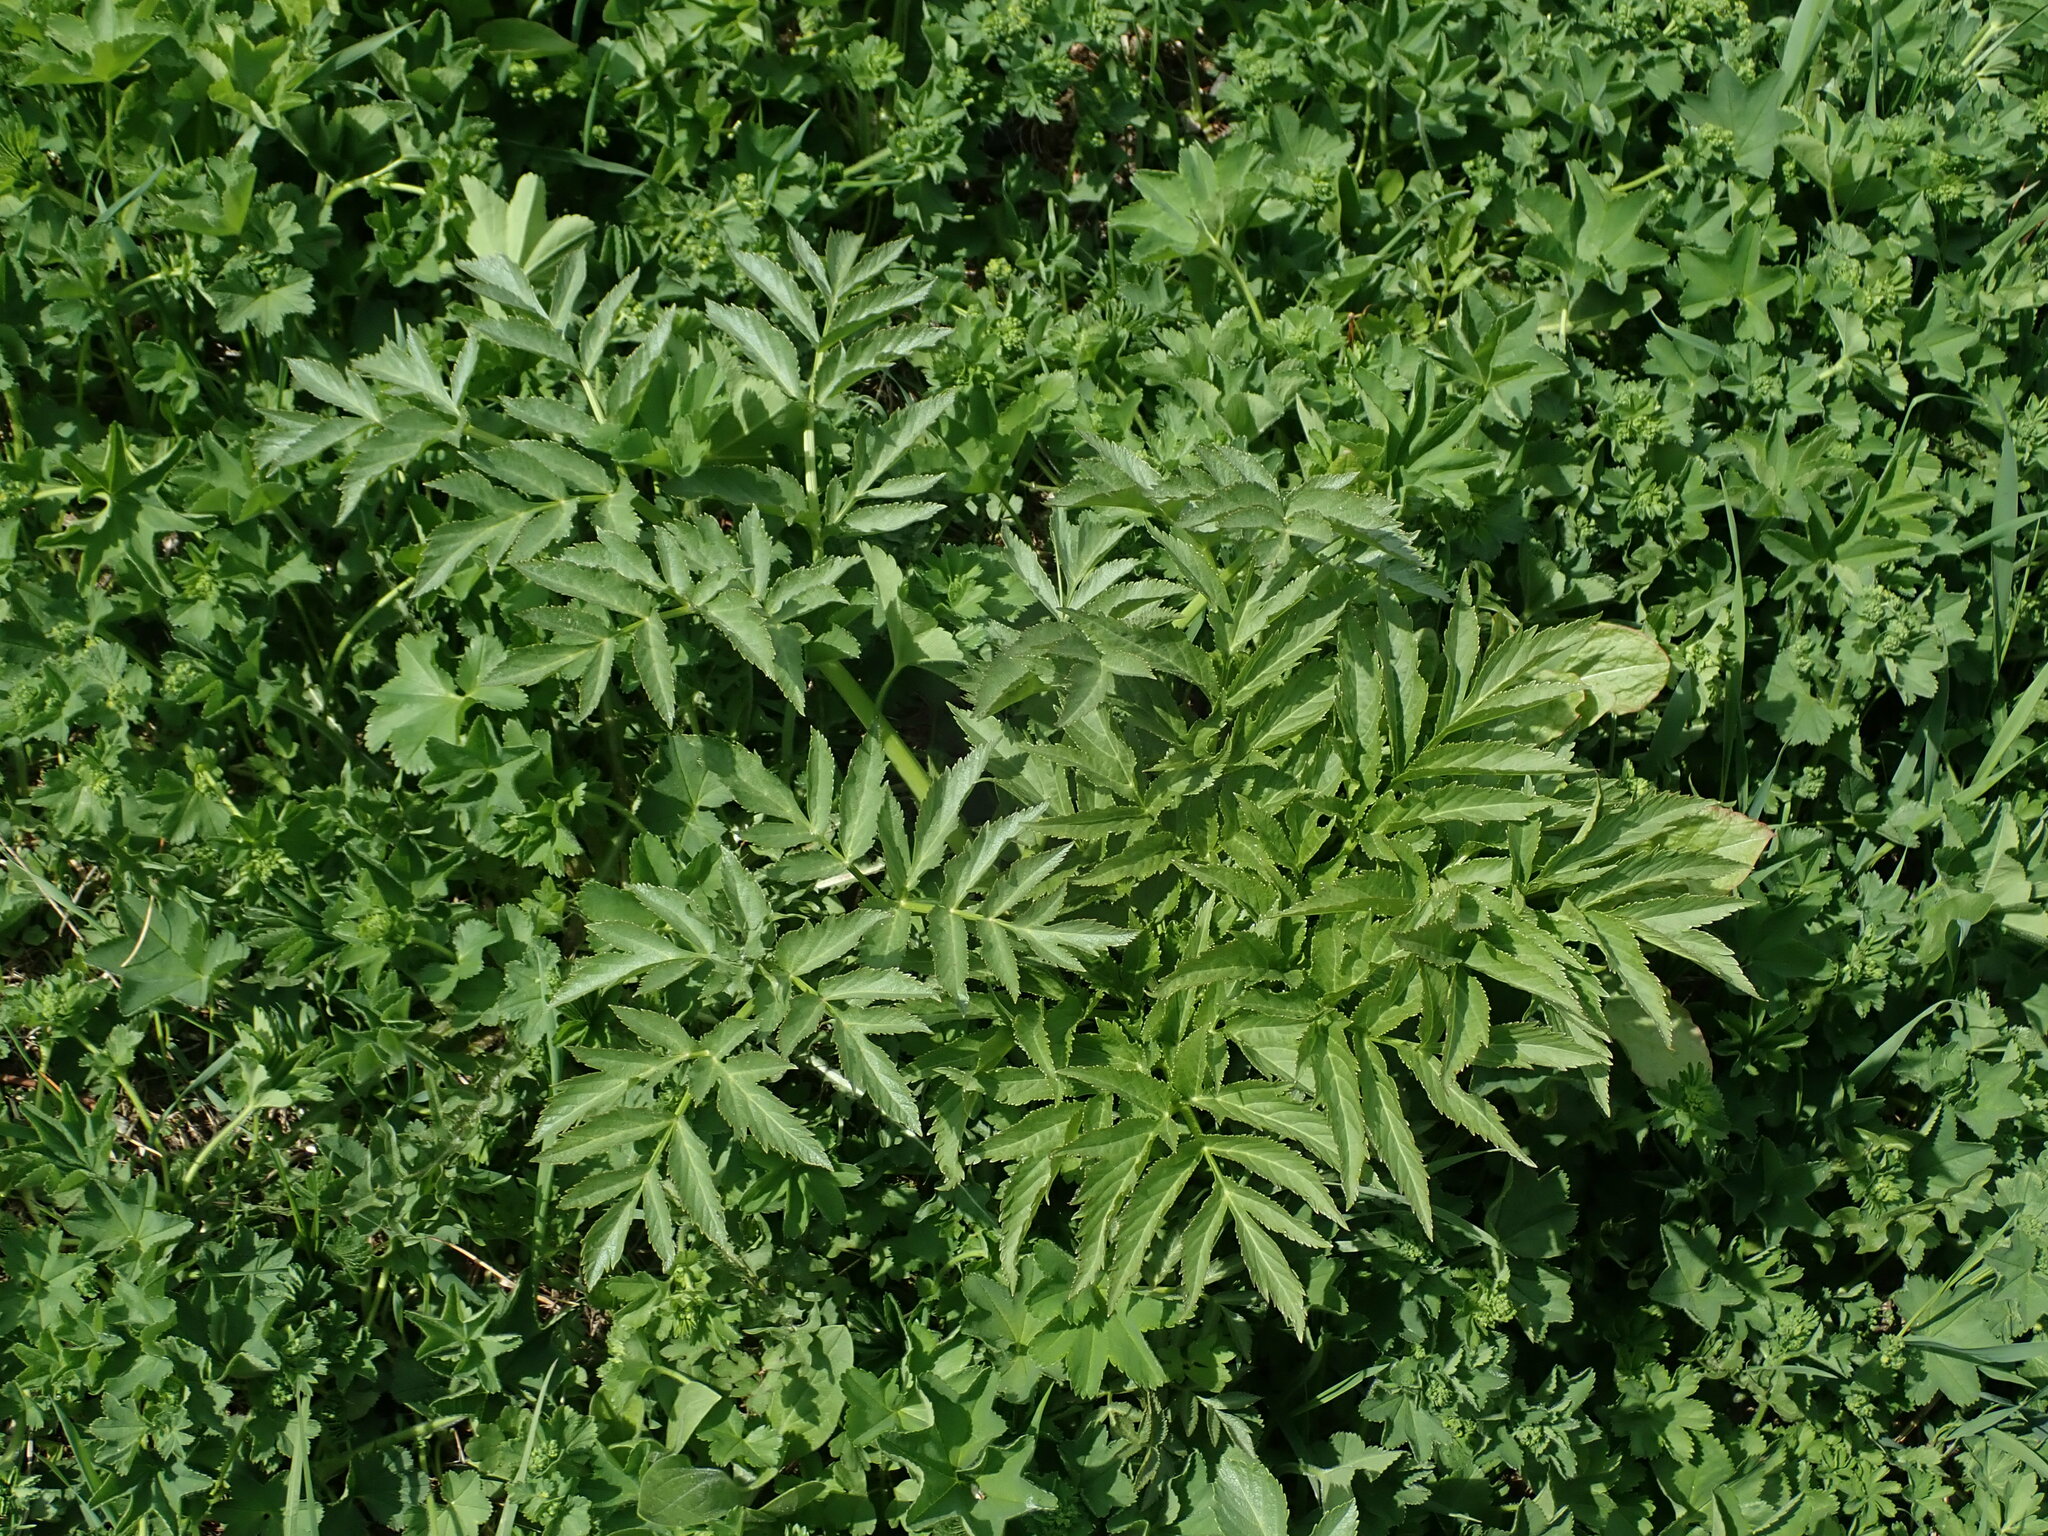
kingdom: Plantae
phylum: Tracheophyta
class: Magnoliopsida
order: Apiales
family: Apiaceae
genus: Angelica
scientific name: Angelica sylvestris
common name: Wild angelica
